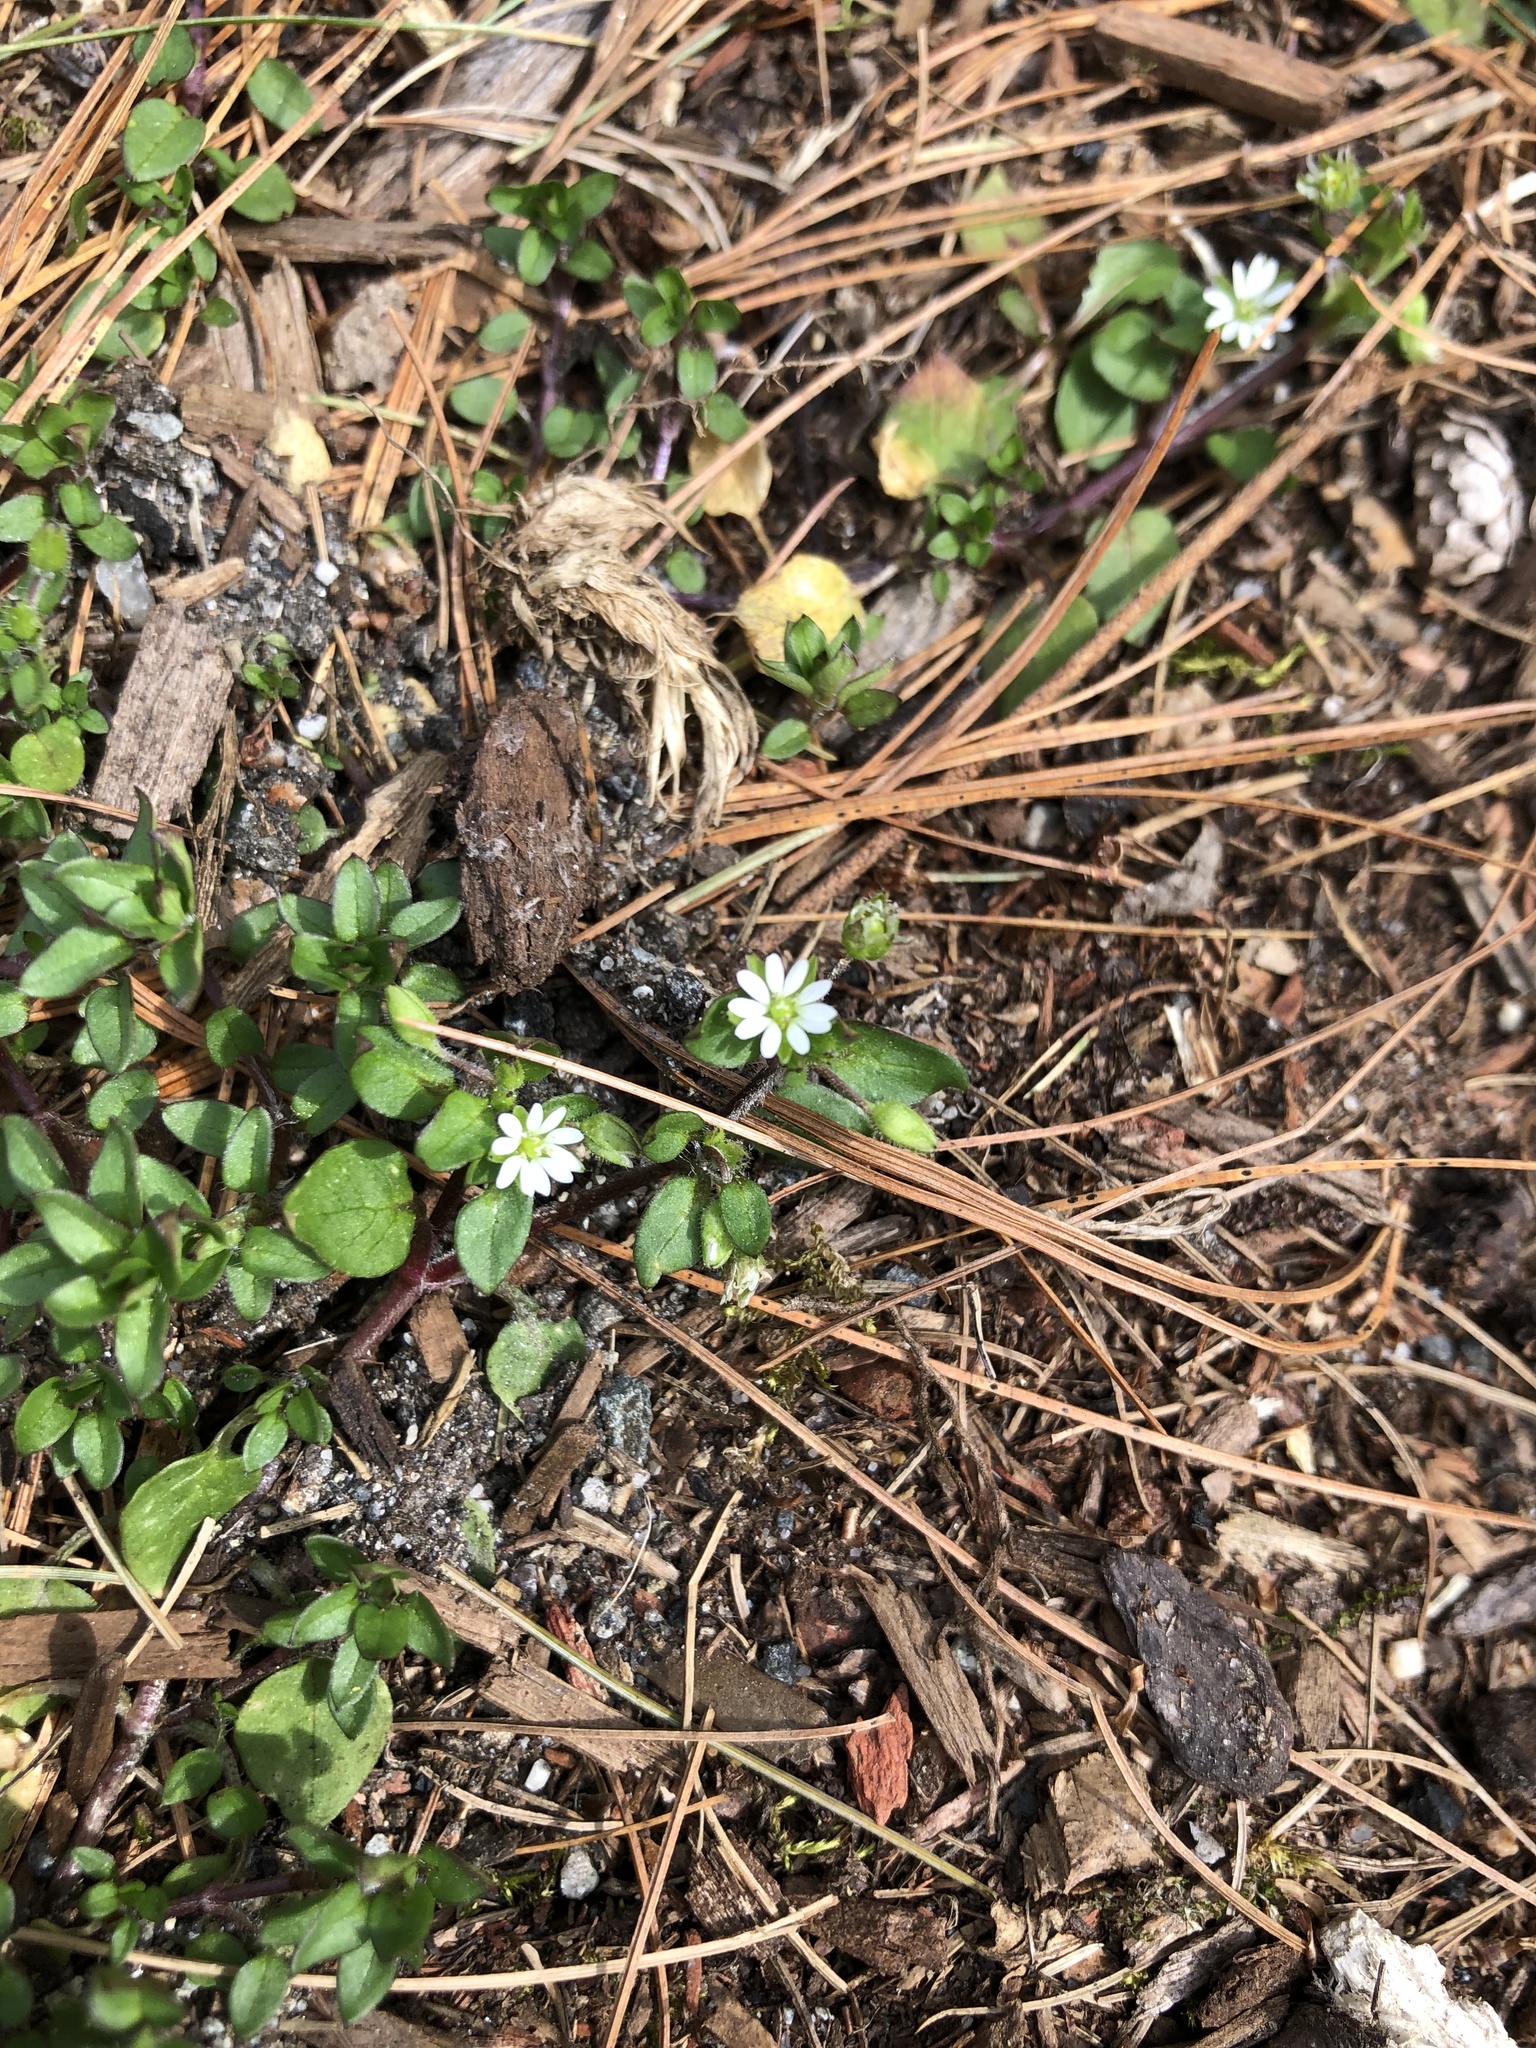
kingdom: Plantae
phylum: Tracheophyta
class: Magnoliopsida
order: Caryophyllales
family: Caryophyllaceae
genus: Stellaria
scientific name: Stellaria media
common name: Common chickweed
